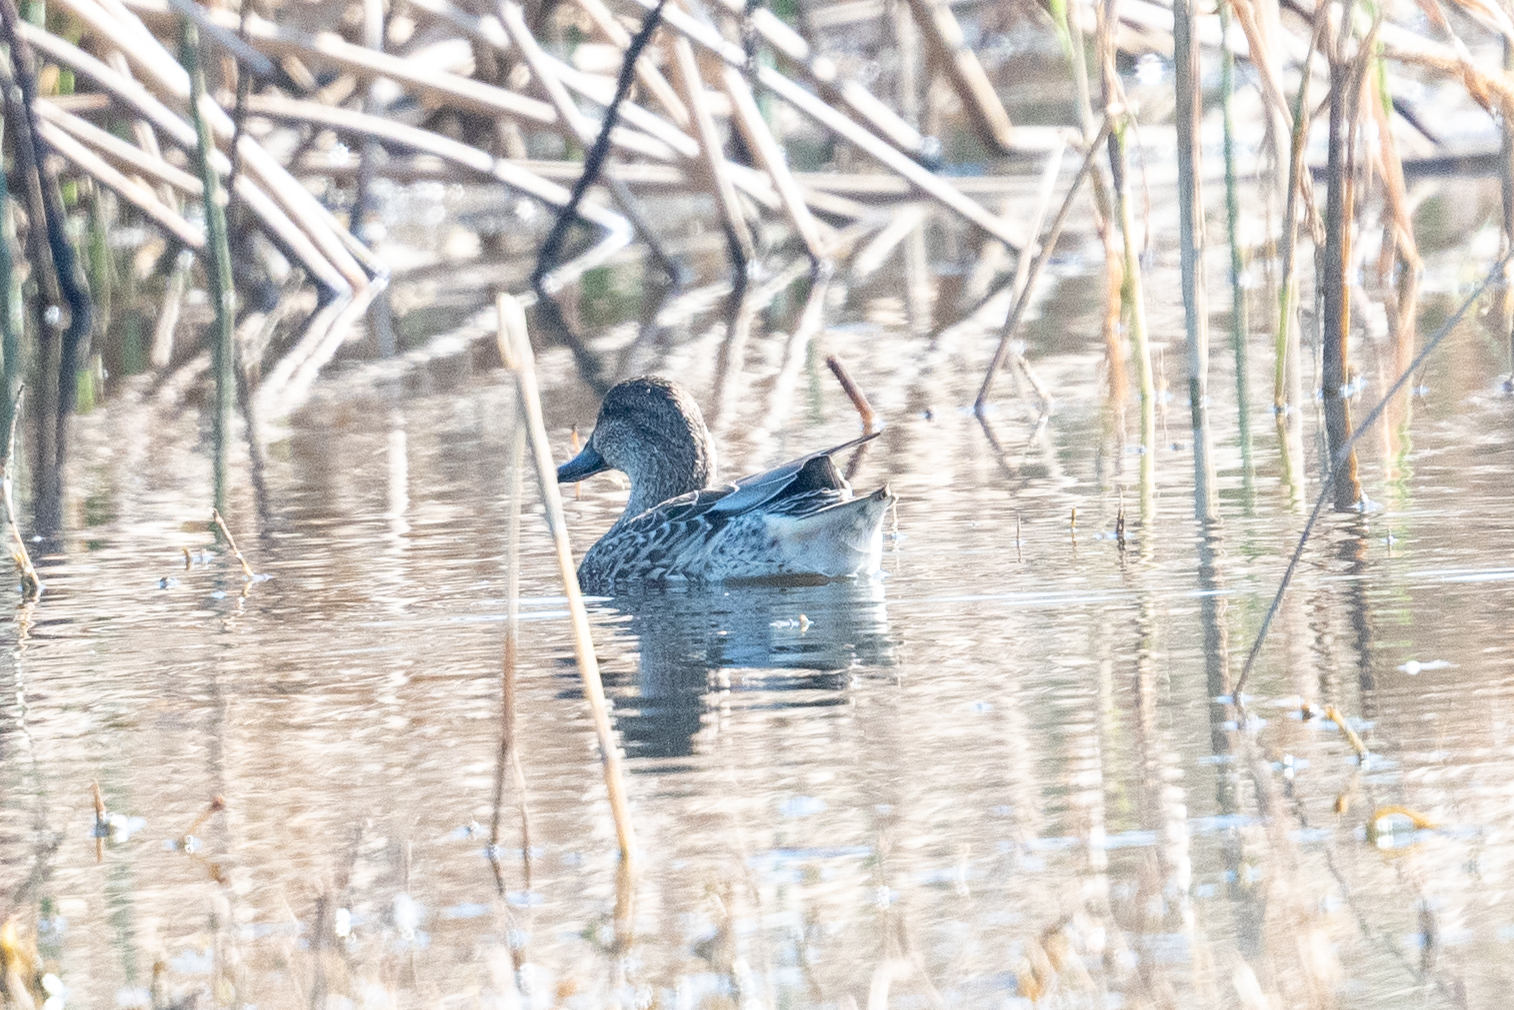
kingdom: Animalia
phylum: Chordata
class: Aves
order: Anseriformes
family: Anatidae
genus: Anas
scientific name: Anas crecca
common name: Eurasian teal
